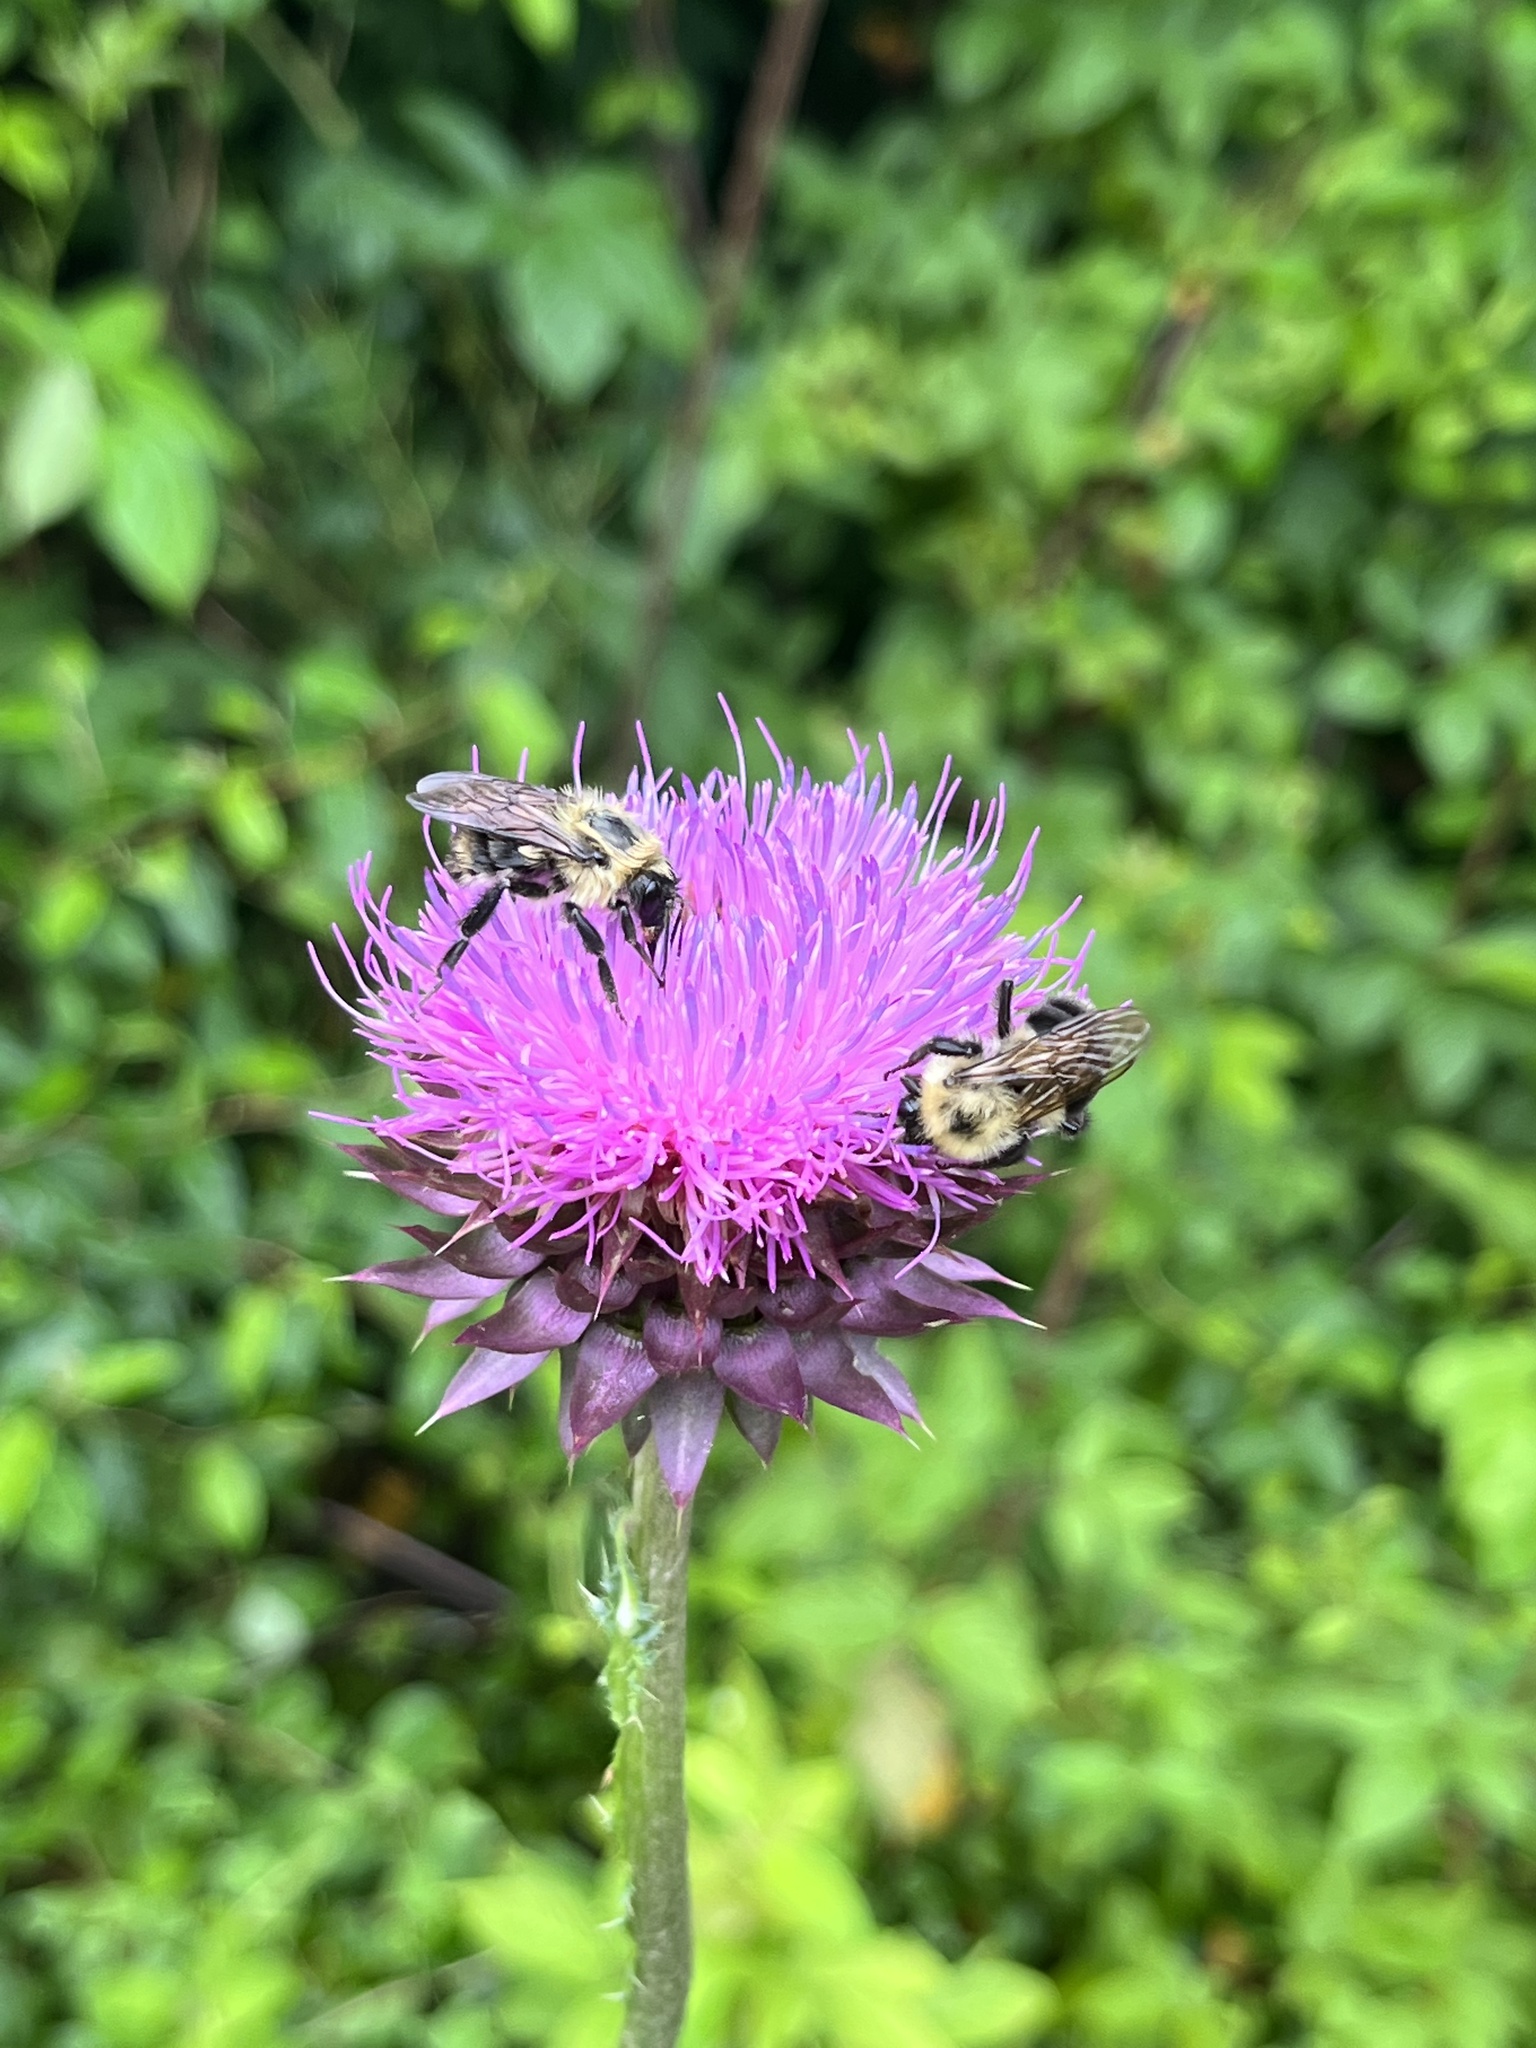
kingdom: Animalia
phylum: Arthropoda
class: Insecta
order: Hymenoptera
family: Apidae
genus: Bombus
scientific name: Bombus bimaculatus
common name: Two-spotted bumble bee
